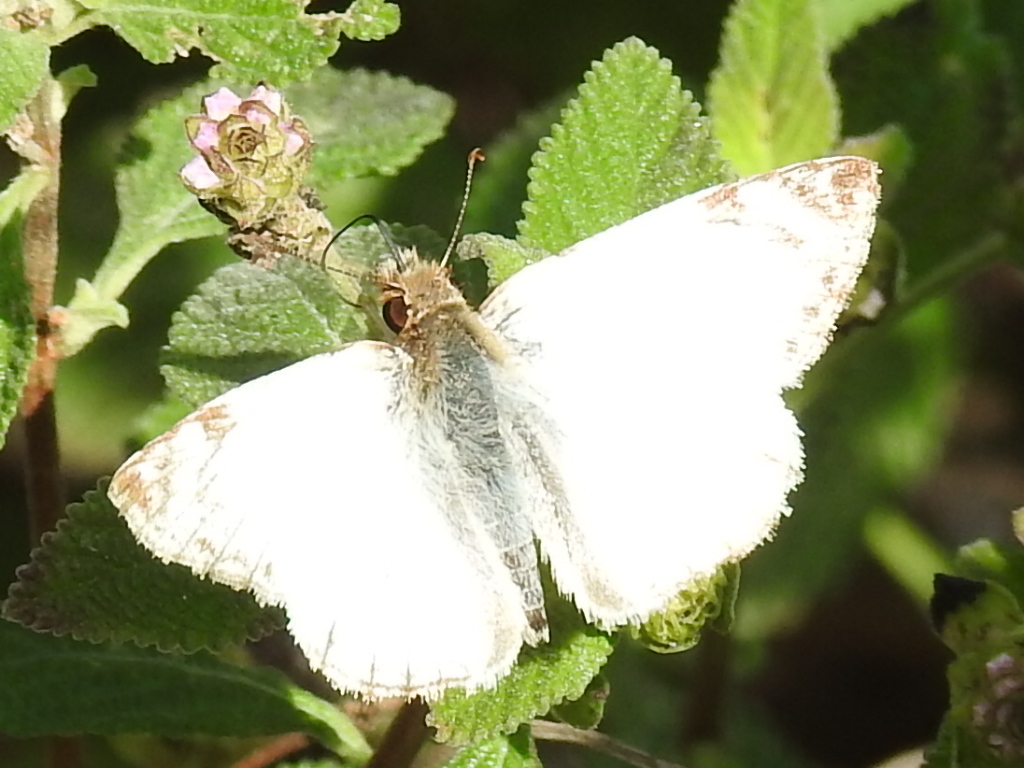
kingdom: Animalia
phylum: Arthropoda
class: Insecta
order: Lepidoptera
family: Hesperiidae
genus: Heliopetes
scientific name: Heliopetes laviana
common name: Laviana white-skipper
